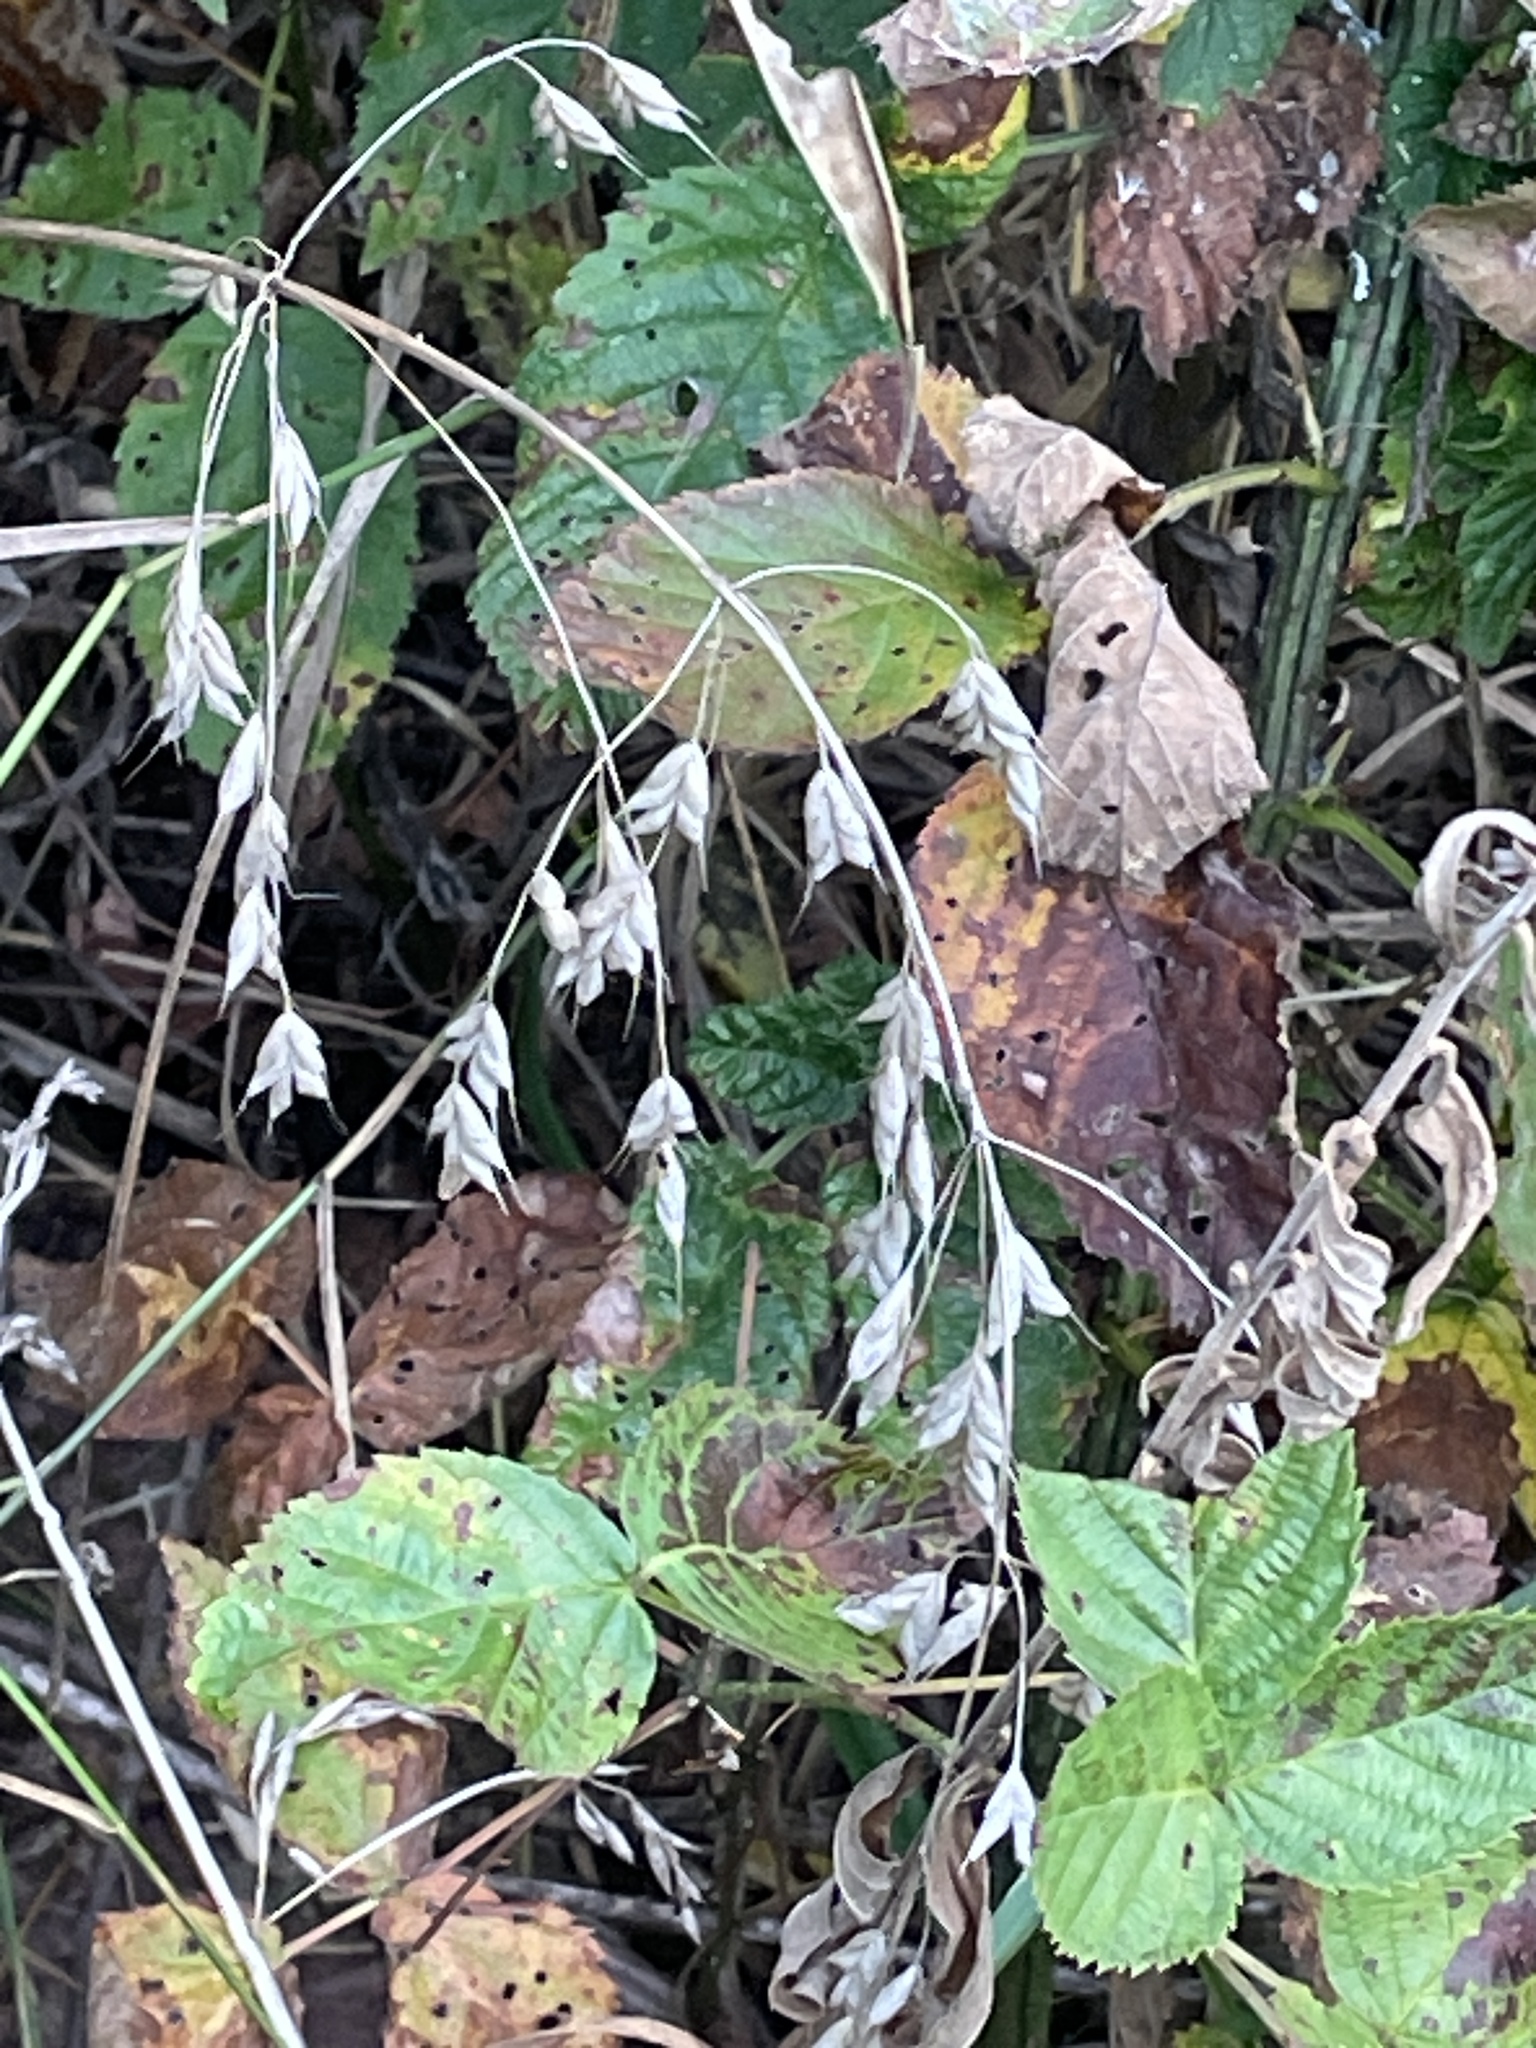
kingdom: Plantae
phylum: Tracheophyta
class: Liliopsida
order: Poales
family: Poaceae
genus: Chasmanthium
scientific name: Chasmanthium latifolium
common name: Broad-leaved chasmanthium
